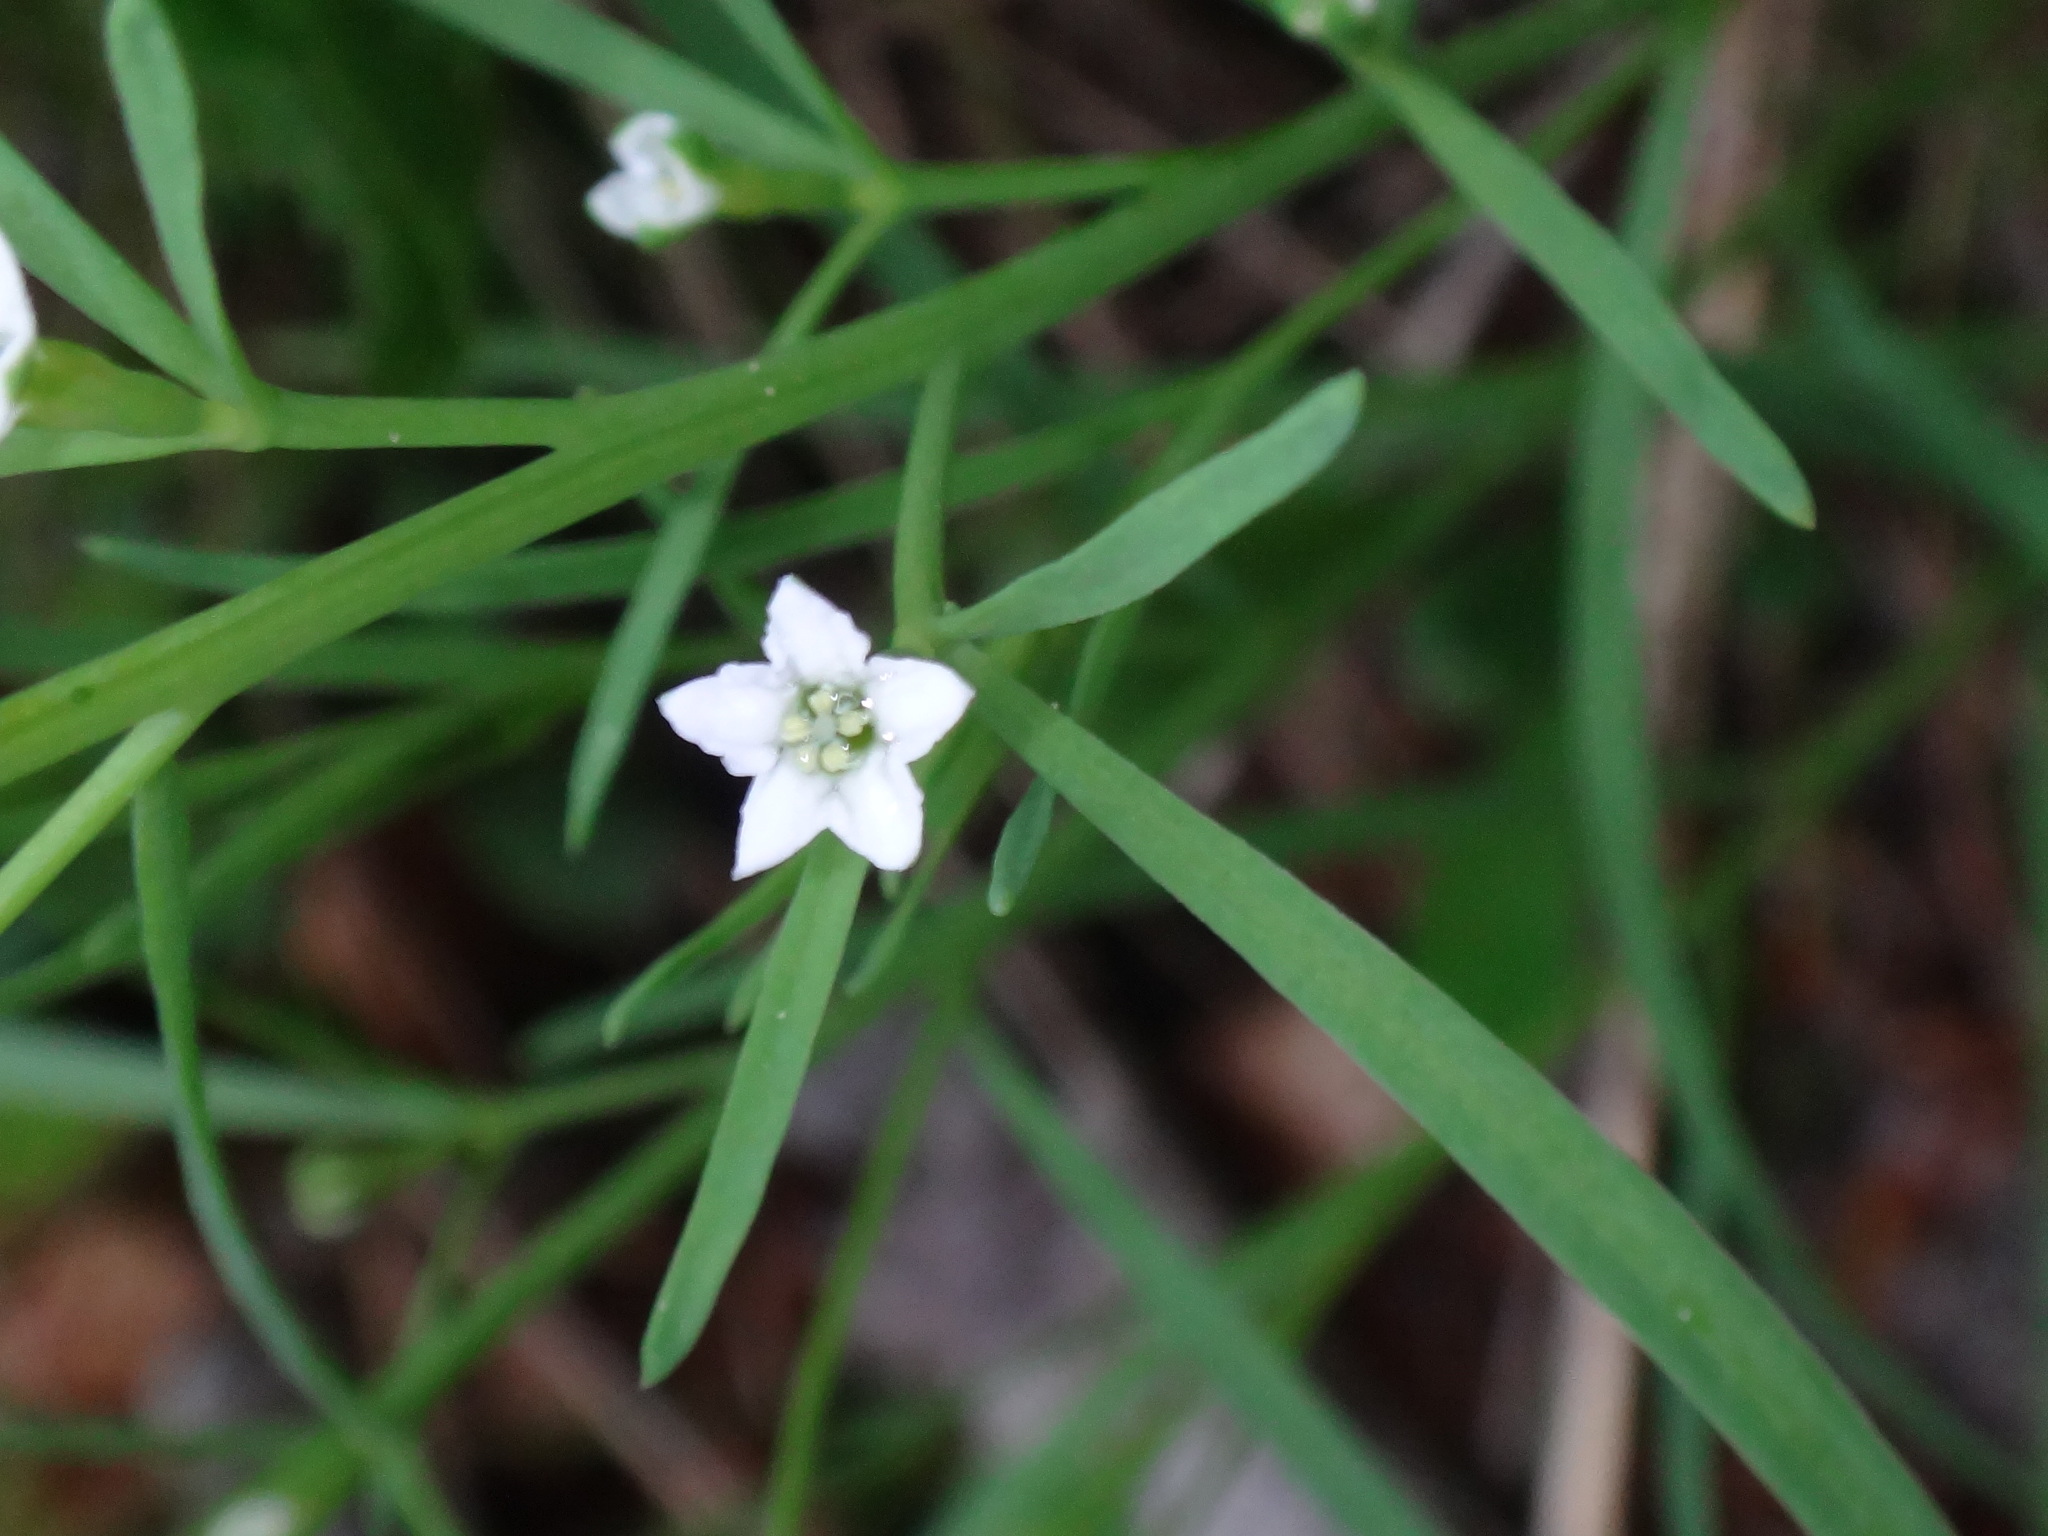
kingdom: Plantae
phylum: Tracheophyta
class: Magnoliopsida
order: Santalales
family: Thesiaceae
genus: Thesium
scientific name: Thesium linophyllon
